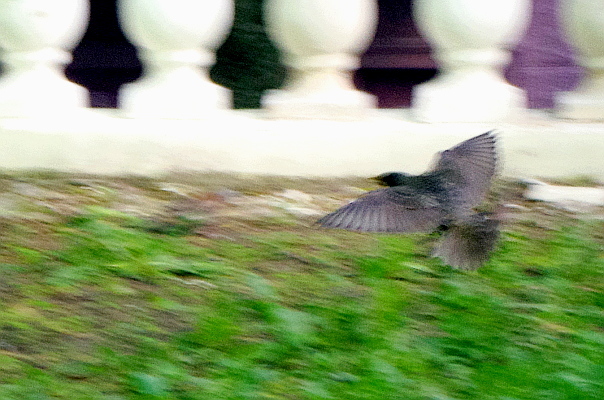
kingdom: Animalia
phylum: Chordata
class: Aves
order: Passeriformes
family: Sturnidae
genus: Sturnus
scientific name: Sturnus vulgaris
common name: Common starling
